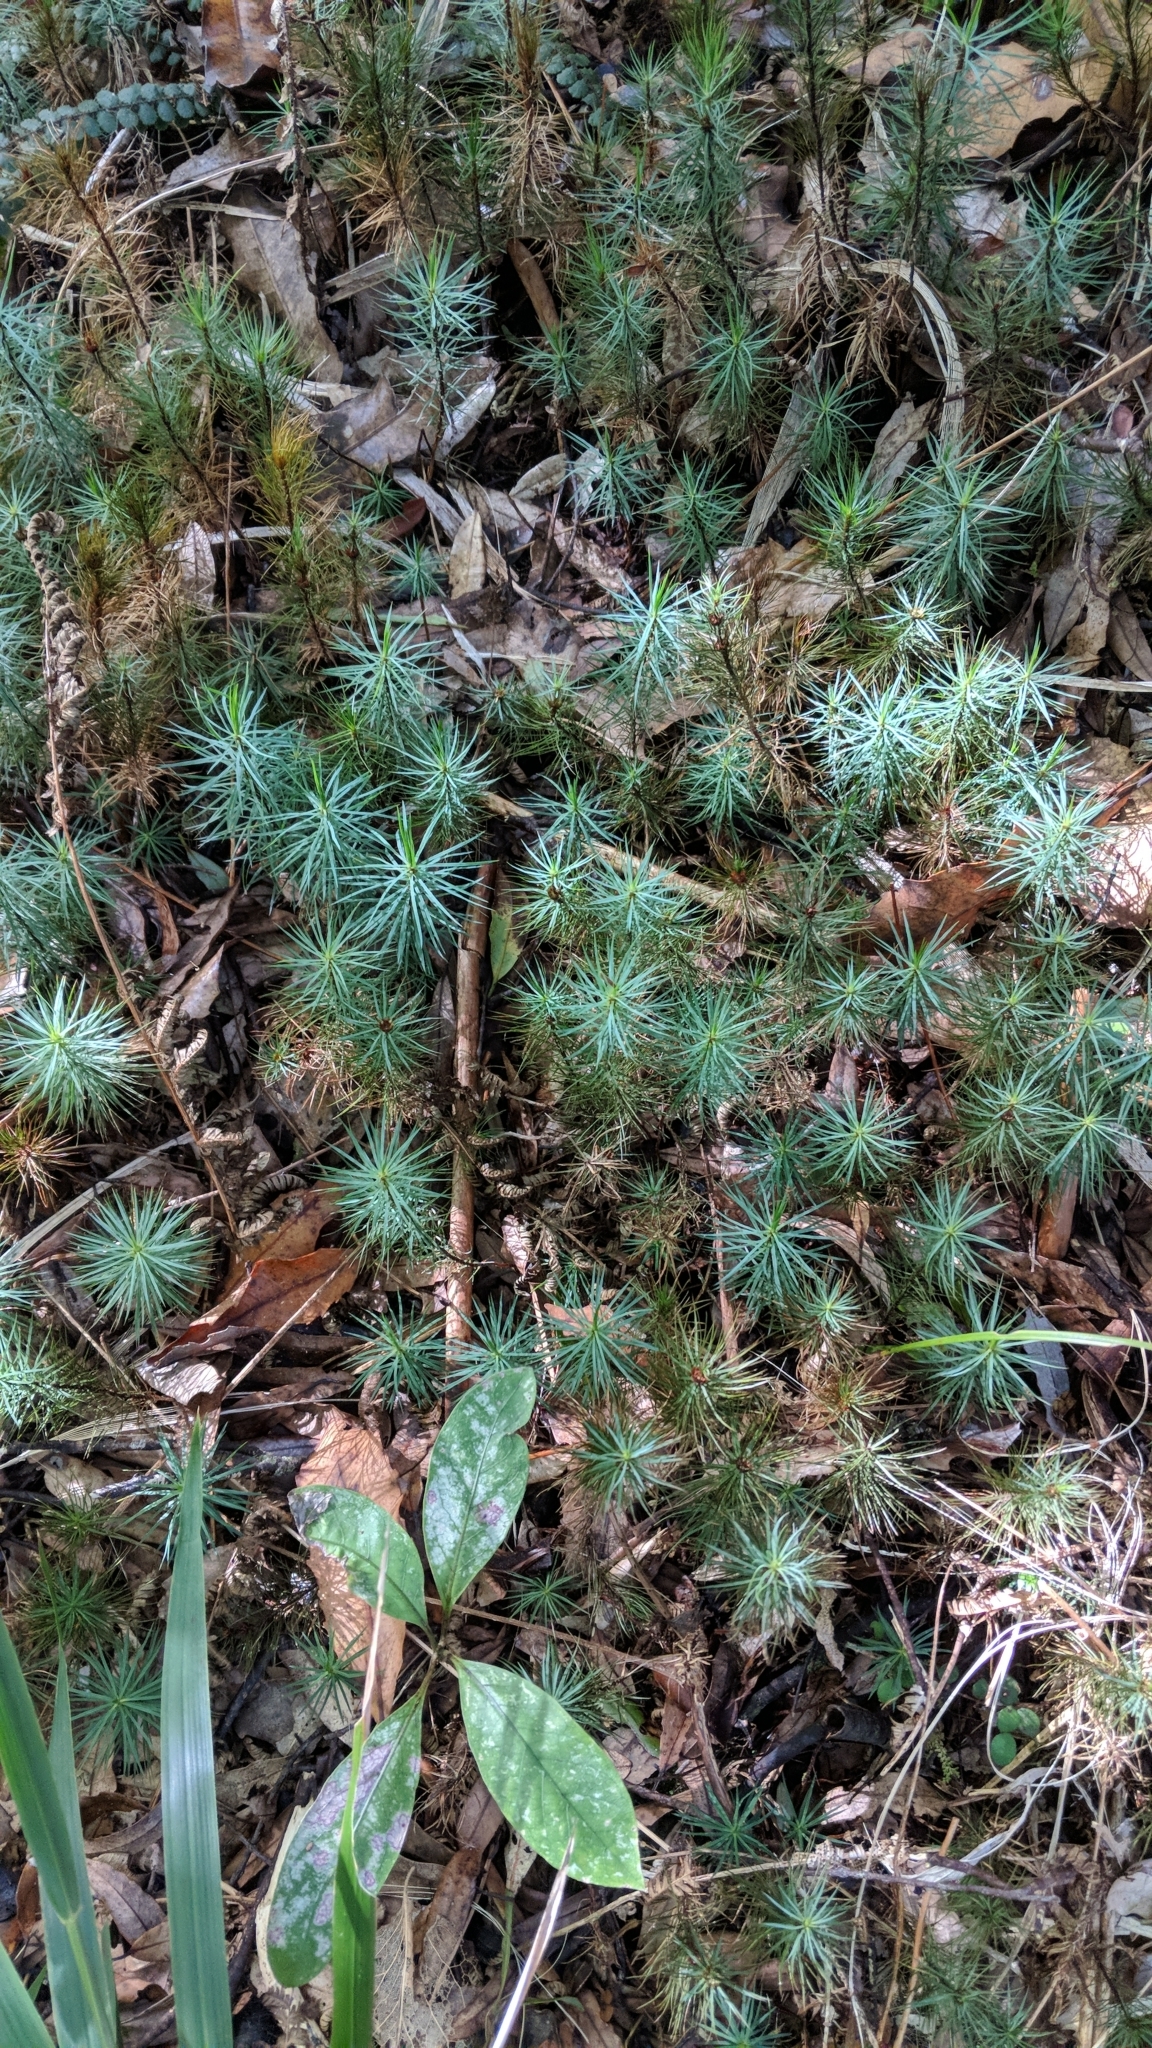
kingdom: Plantae
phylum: Bryophyta
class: Polytrichopsida
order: Polytrichales
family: Polytrichaceae
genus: Dawsonia
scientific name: Dawsonia superba
